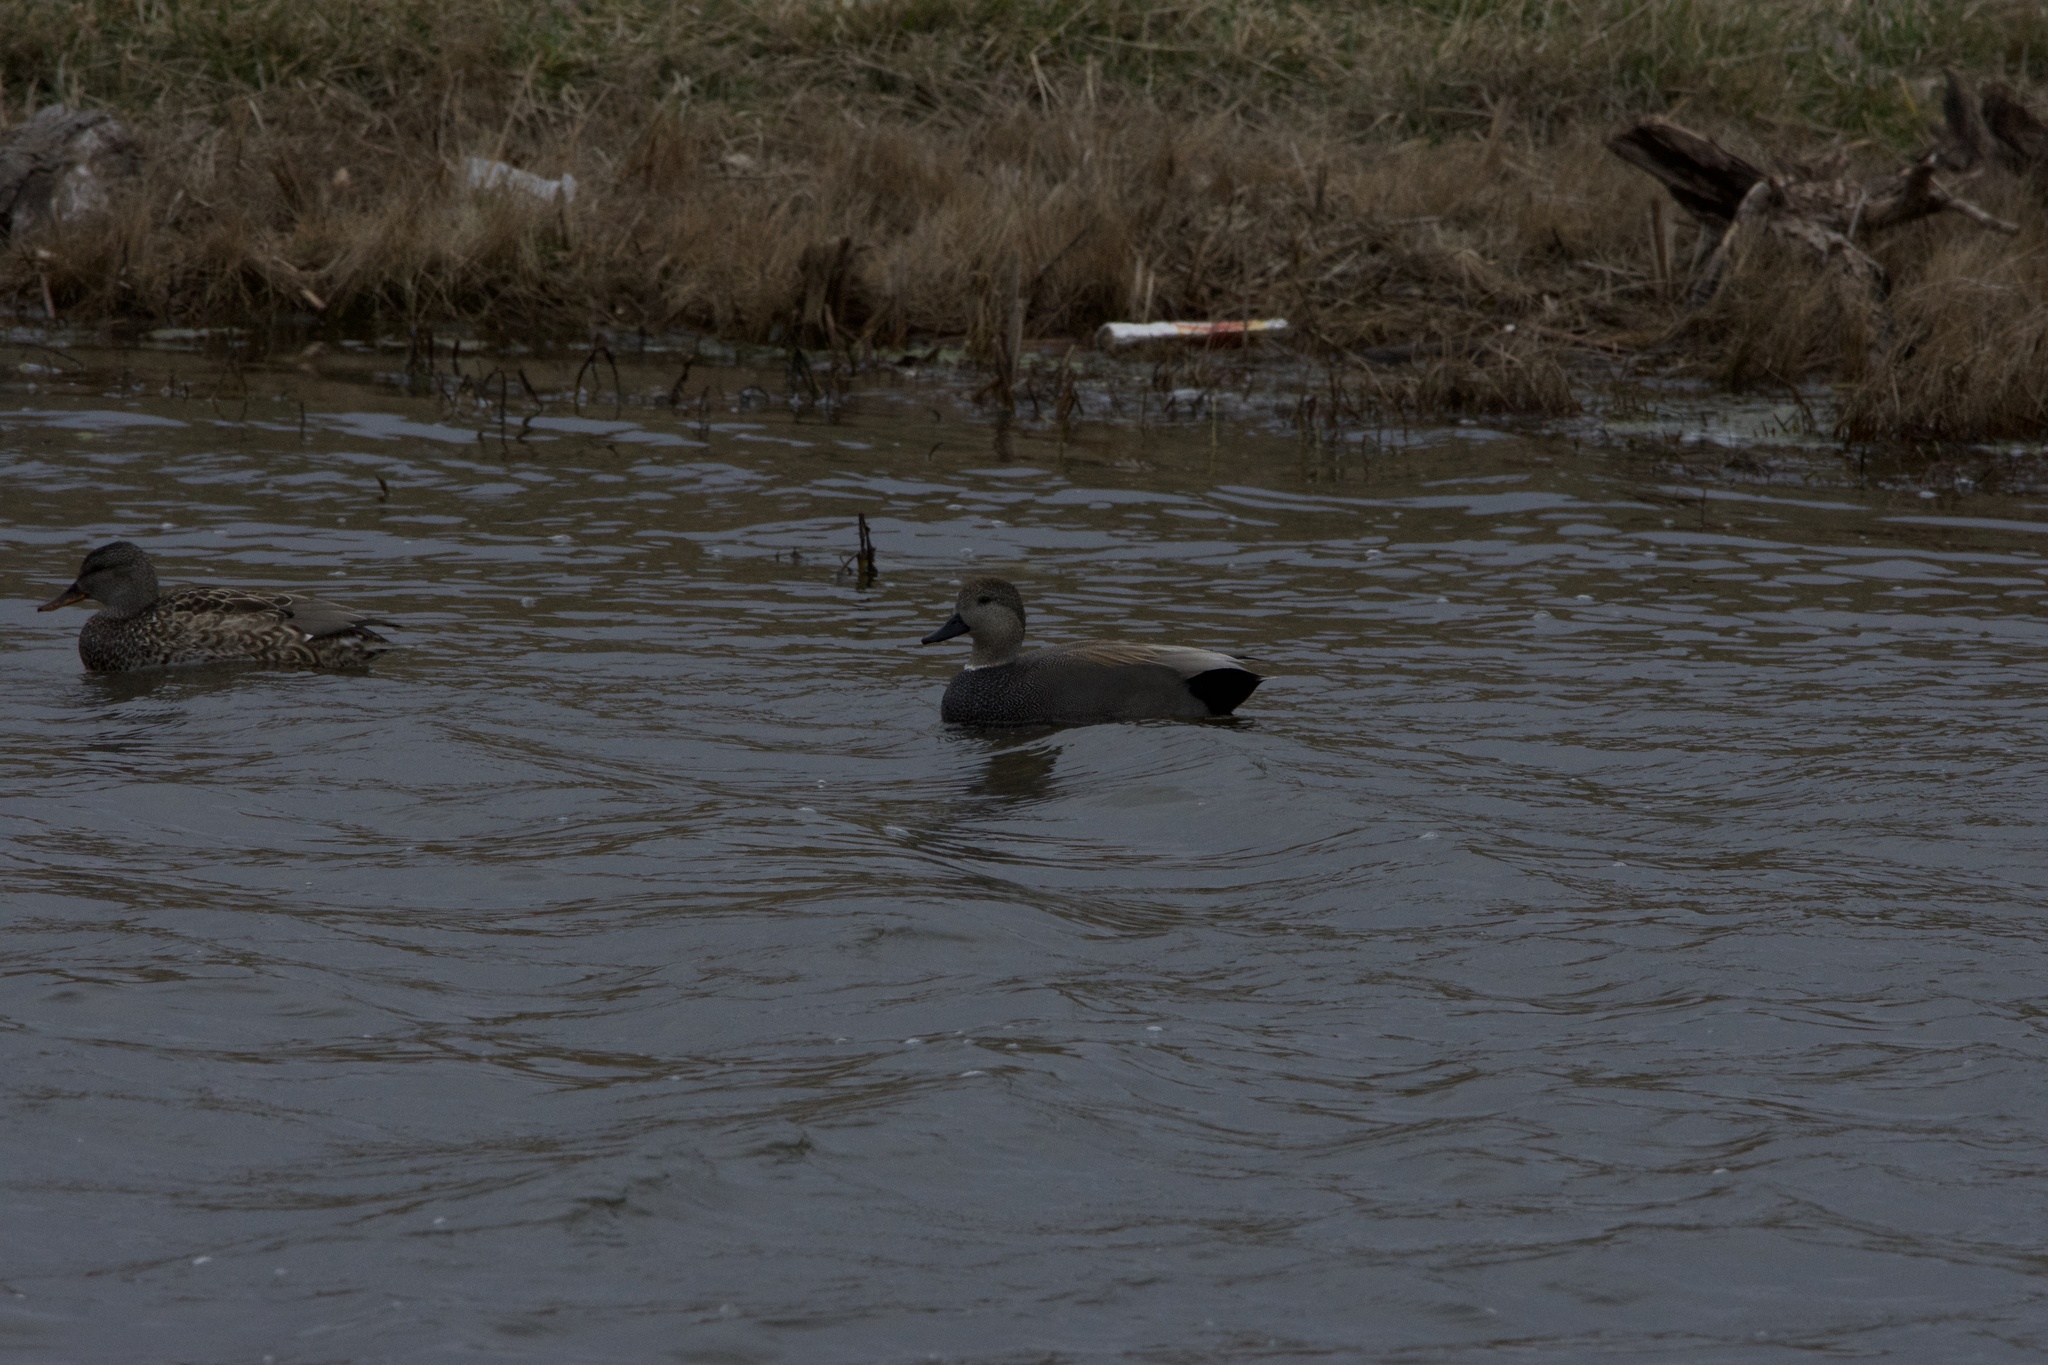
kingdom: Animalia
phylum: Chordata
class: Aves
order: Anseriformes
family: Anatidae
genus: Mareca
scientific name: Mareca strepera
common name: Gadwall
